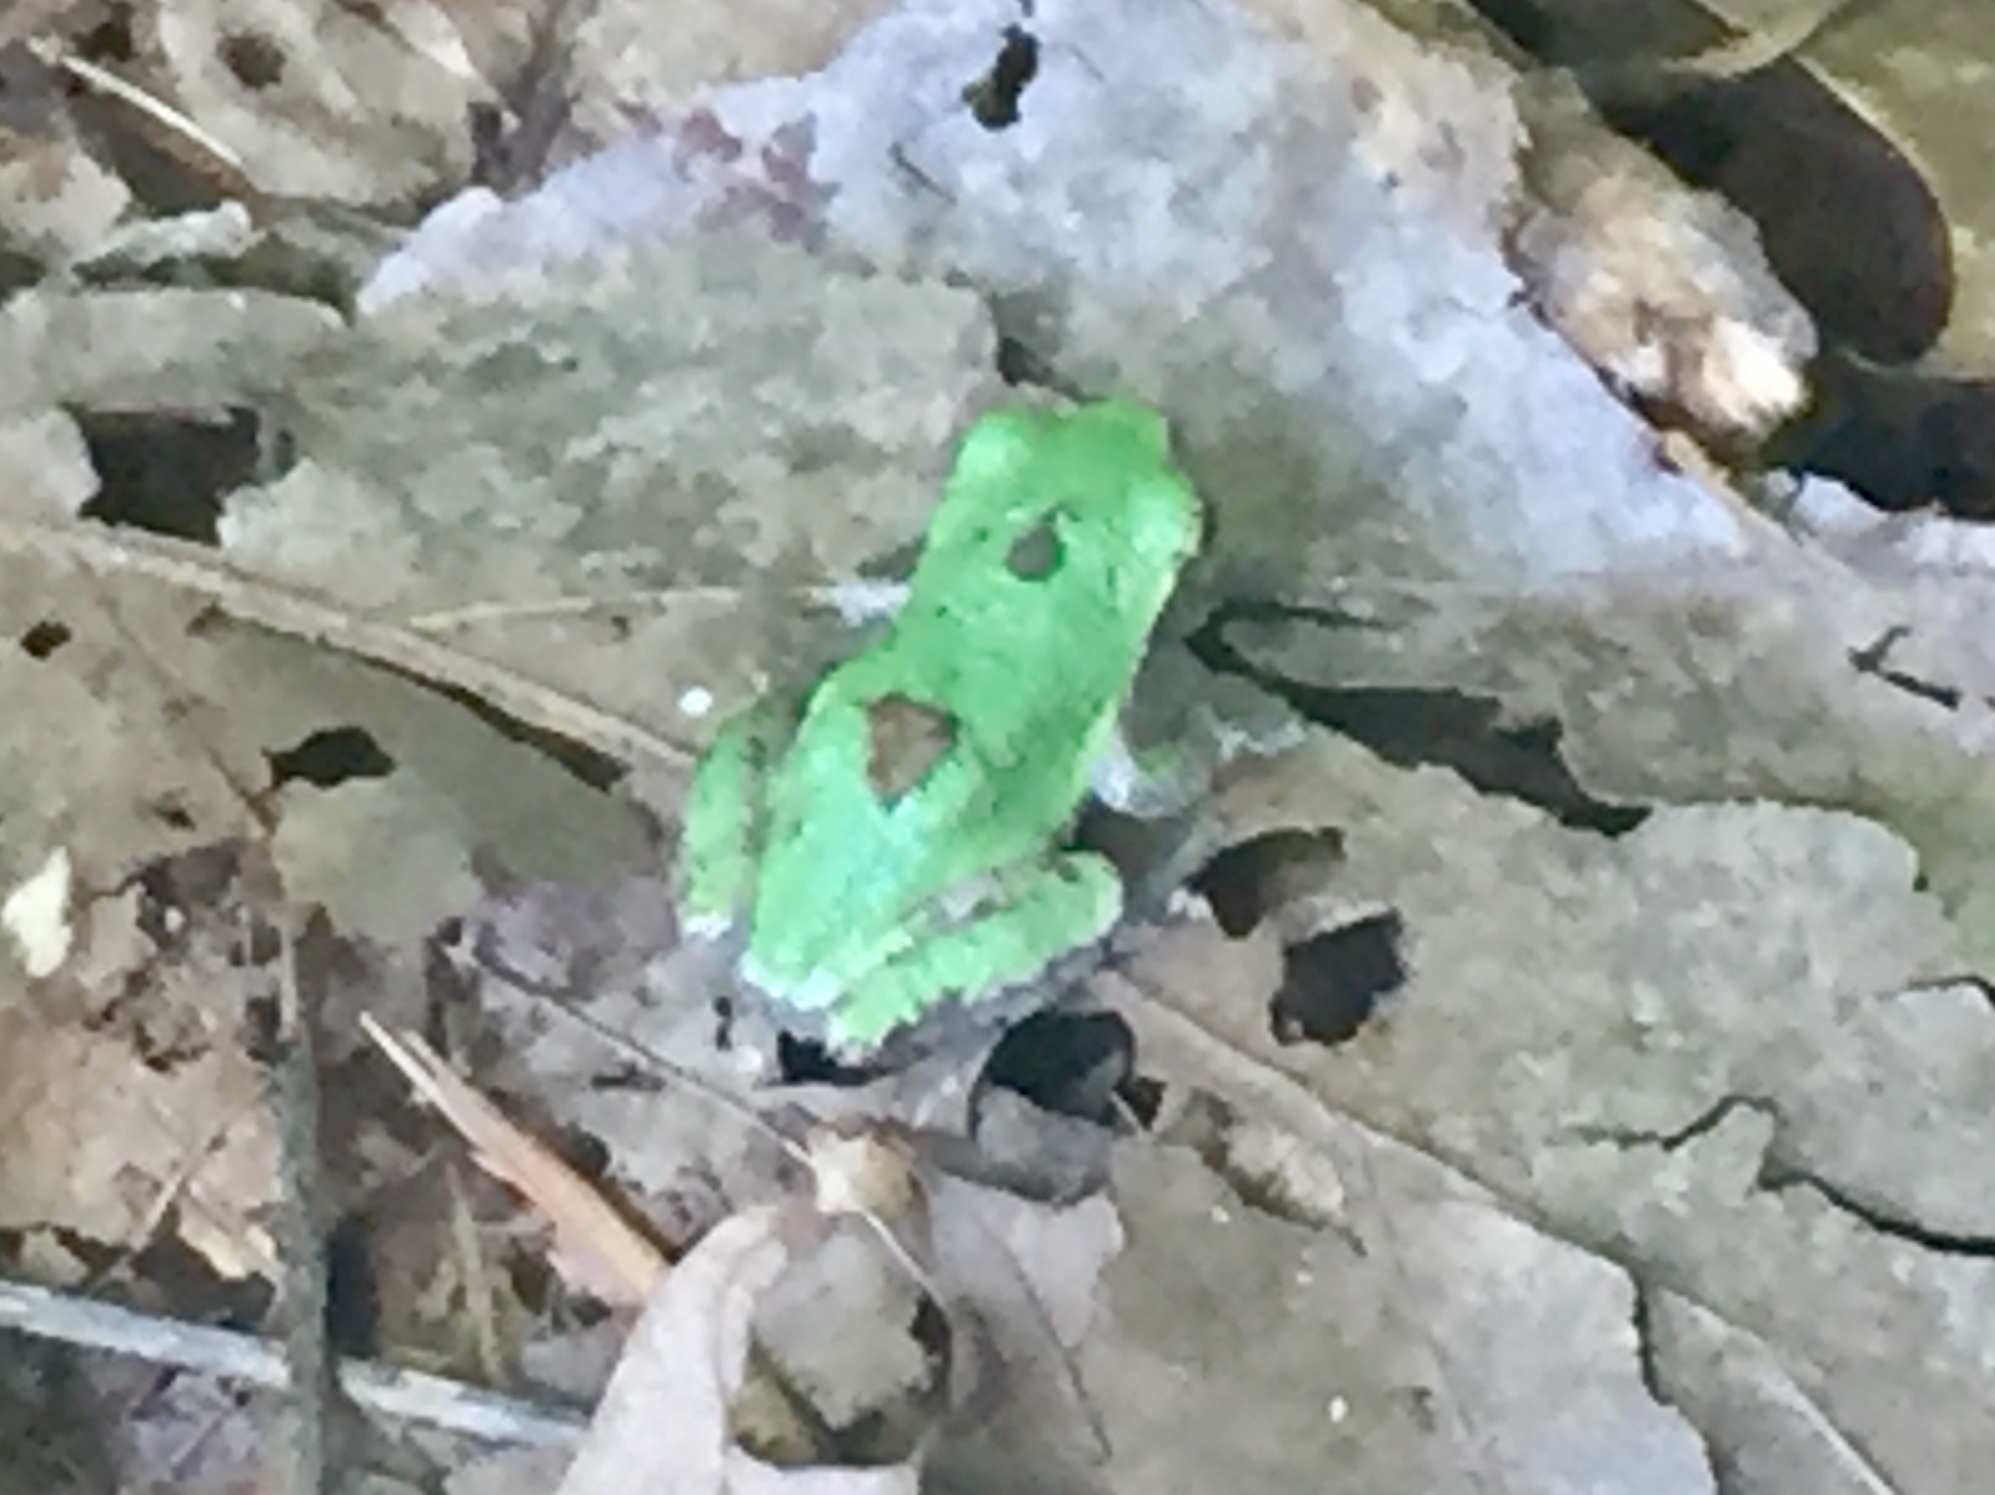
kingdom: Animalia
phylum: Chordata
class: Amphibia
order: Anura
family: Hylidae
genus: Dryophytes
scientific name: Dryophytes versicolor
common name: Gray treefrog
